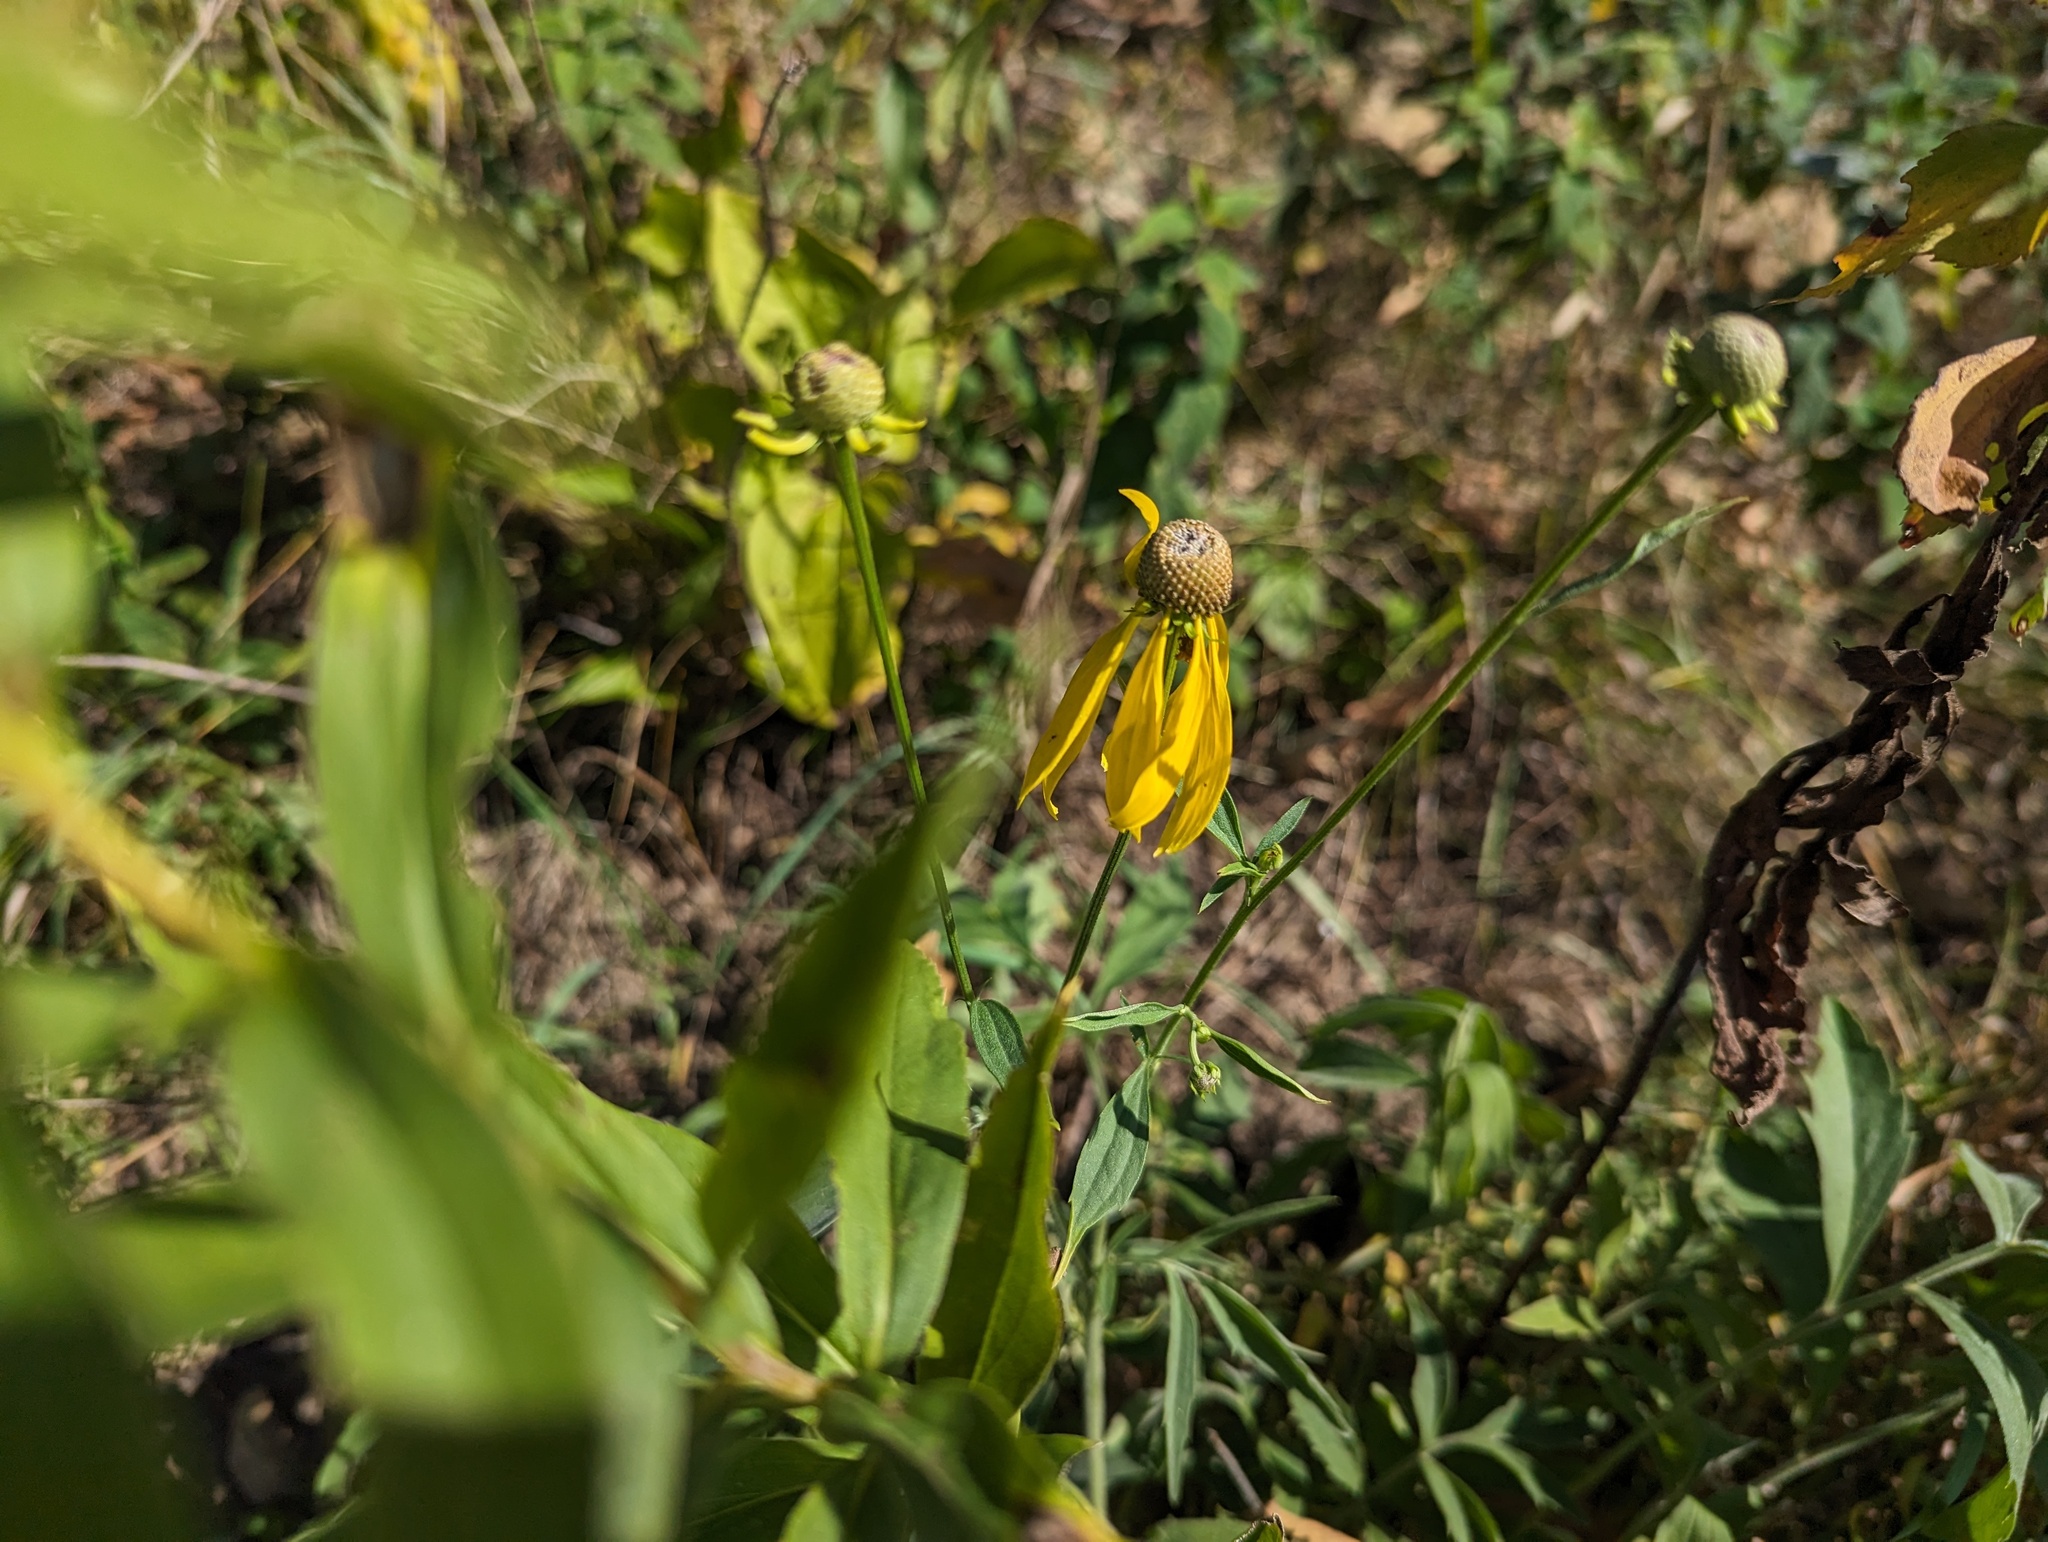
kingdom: Plantae
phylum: Tracheophyta
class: Magnoliopsida
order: Asterales
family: Asteraceae
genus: Ratibida
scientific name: Ratibida pinnata
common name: Drooping prairie-coneflower
